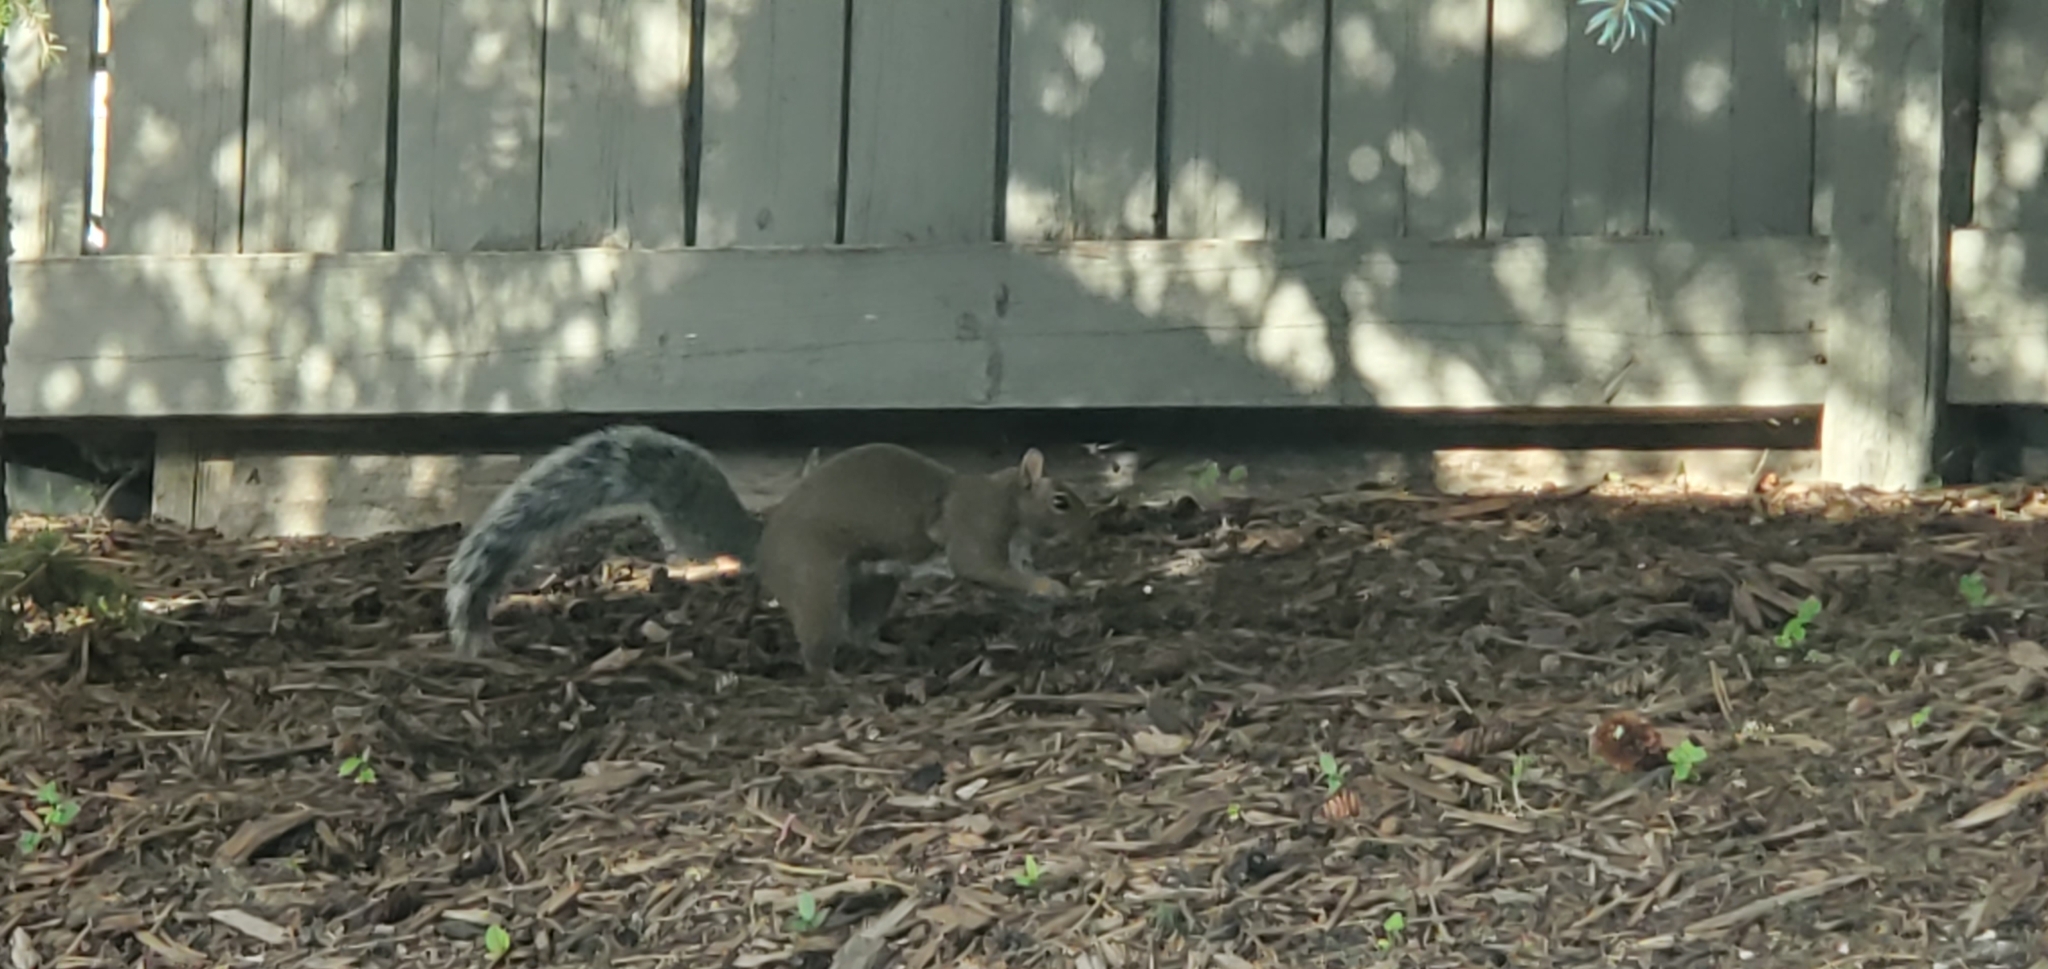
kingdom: Animalia
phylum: Chordata
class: Mammalia
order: Rodentia
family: Sciuridae
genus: Sciurus
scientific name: Sciurus carolinensis
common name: Eastern gray squirrel
